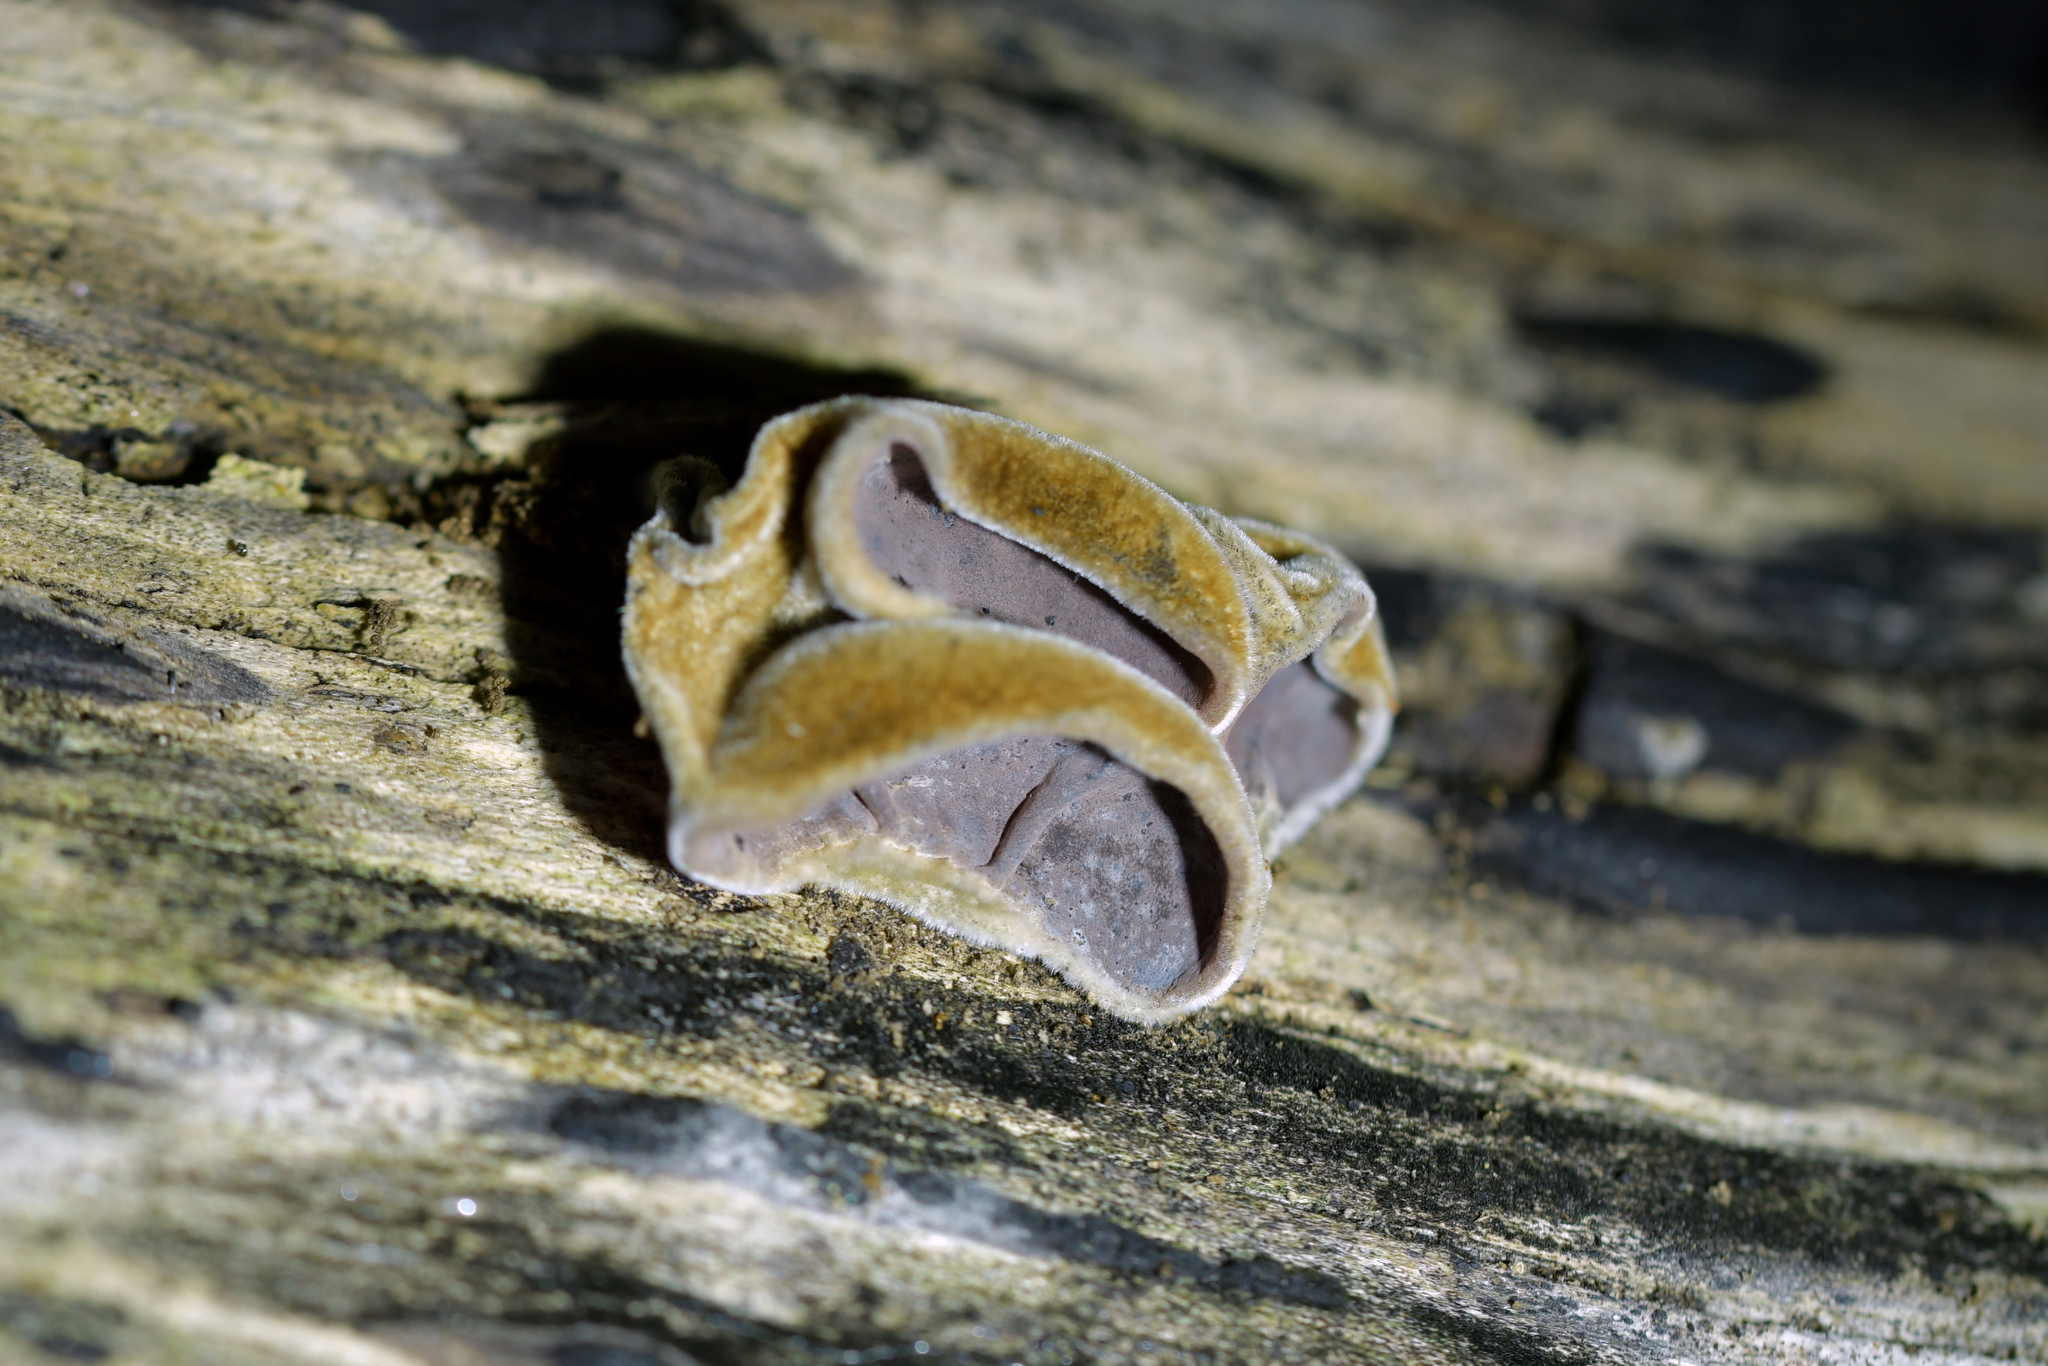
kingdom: Fungi
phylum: Basidiomycota
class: Agaricomycetes
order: Auriculariales
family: Auriculariaceae
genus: Auricularia
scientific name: Auricularia cornea
